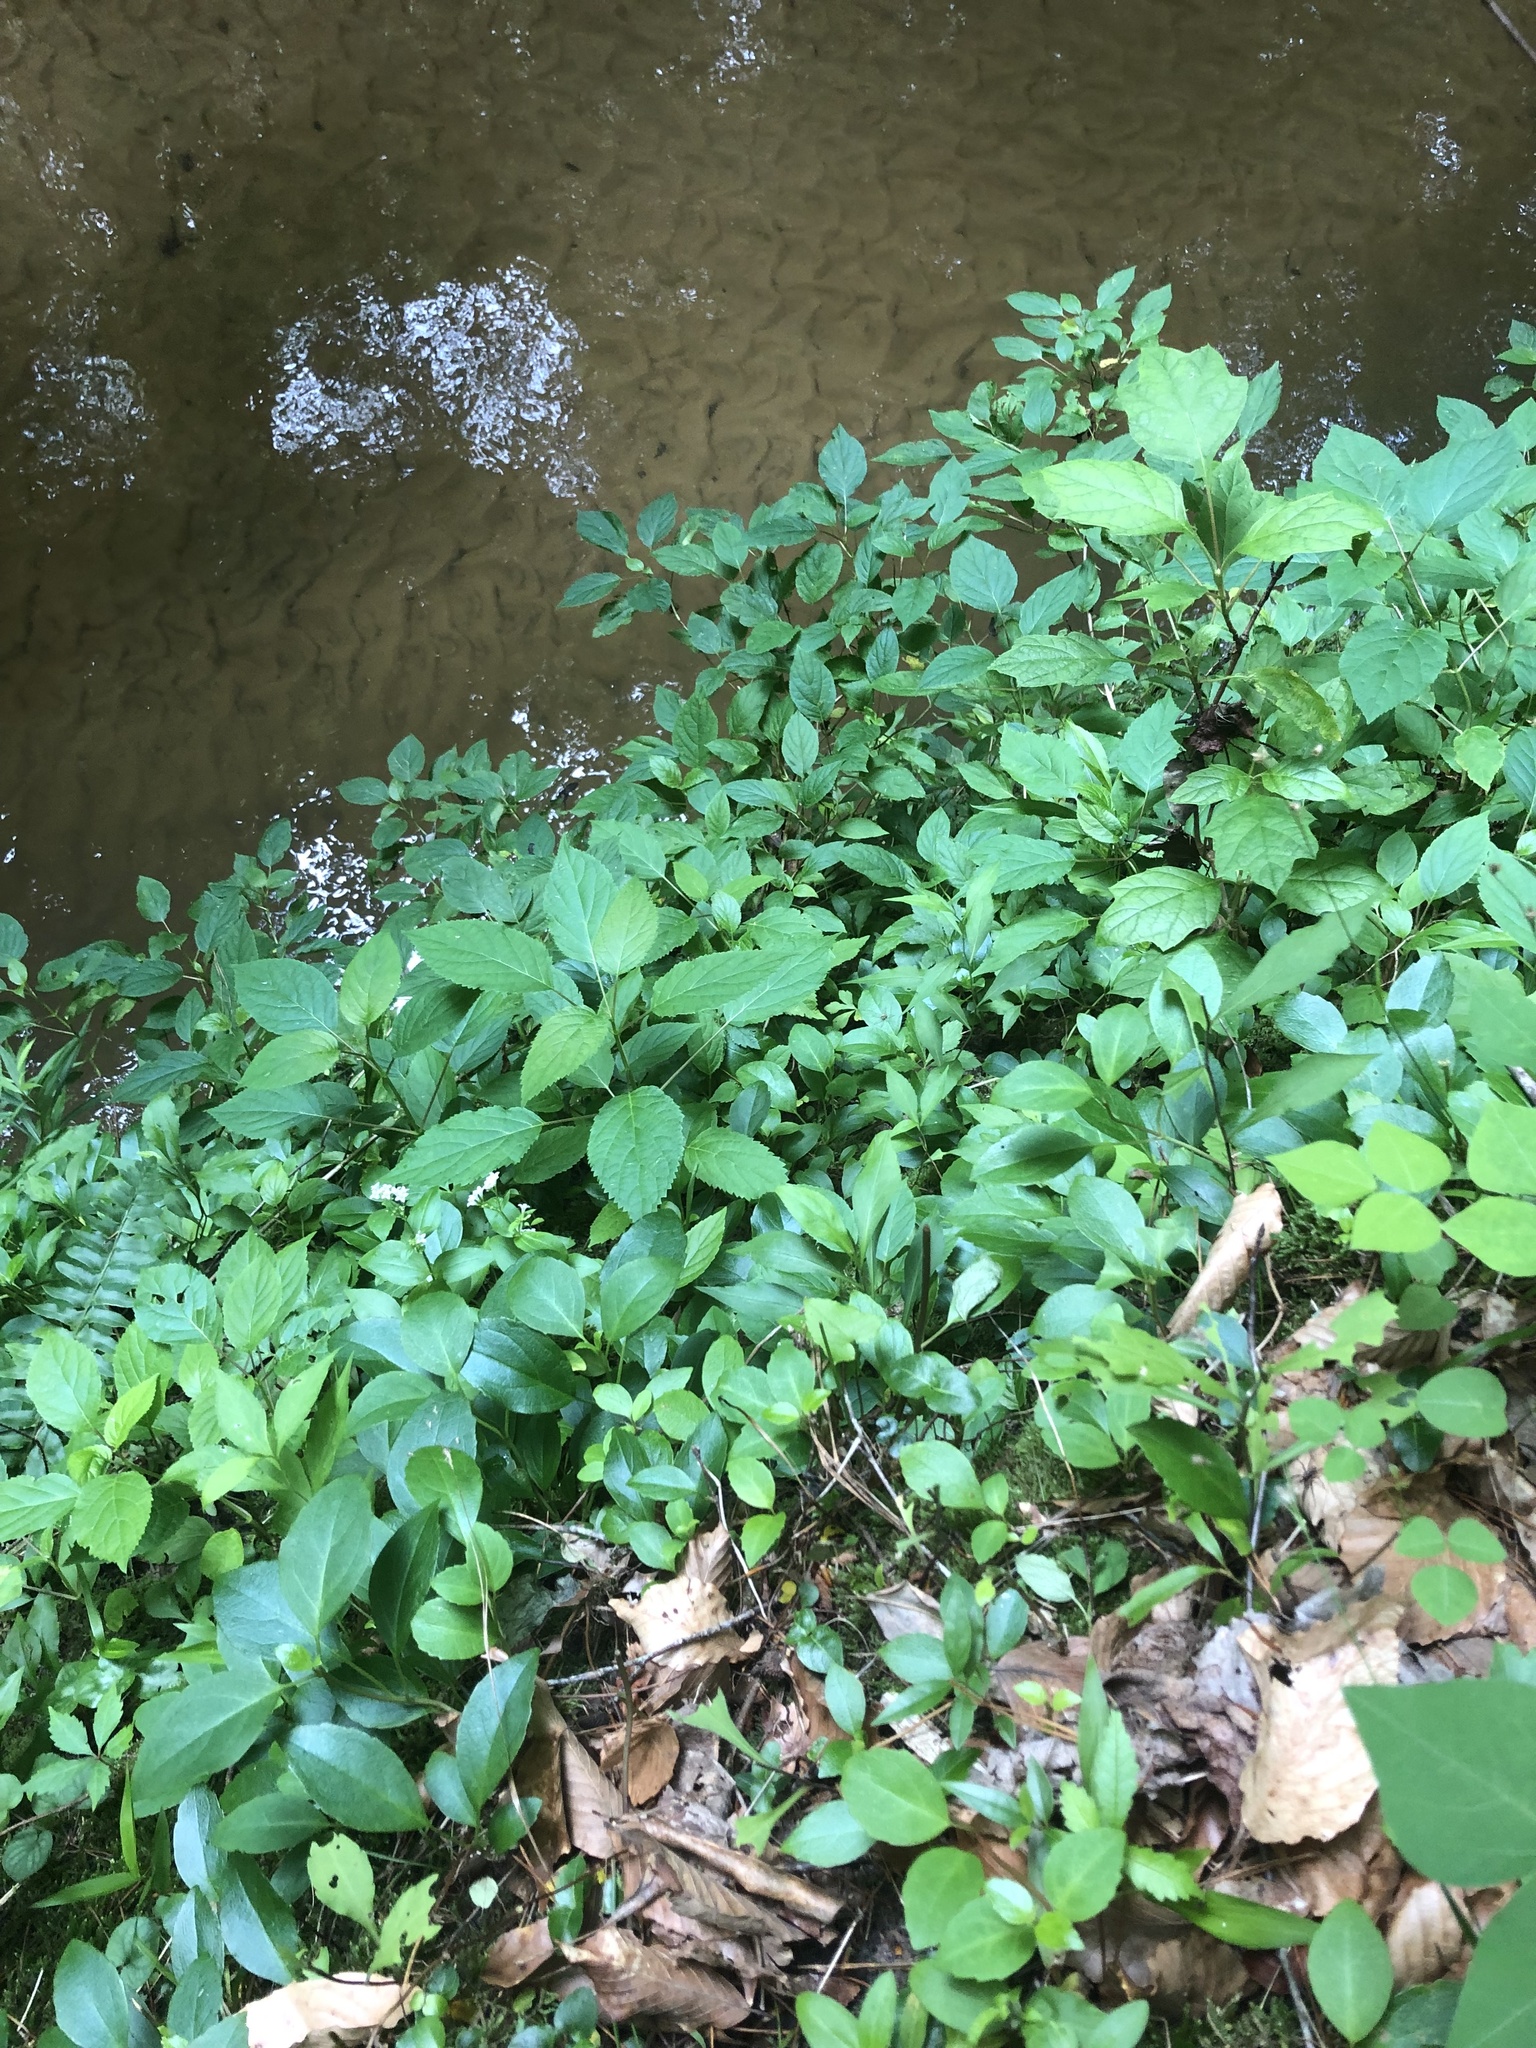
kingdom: Plantae
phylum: Tracheophyta
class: Magnoliopsida
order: Cornales
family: Hydrangeaceae
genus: Hydrangea
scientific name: Hydrangea arborescens
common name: Sevenbark
